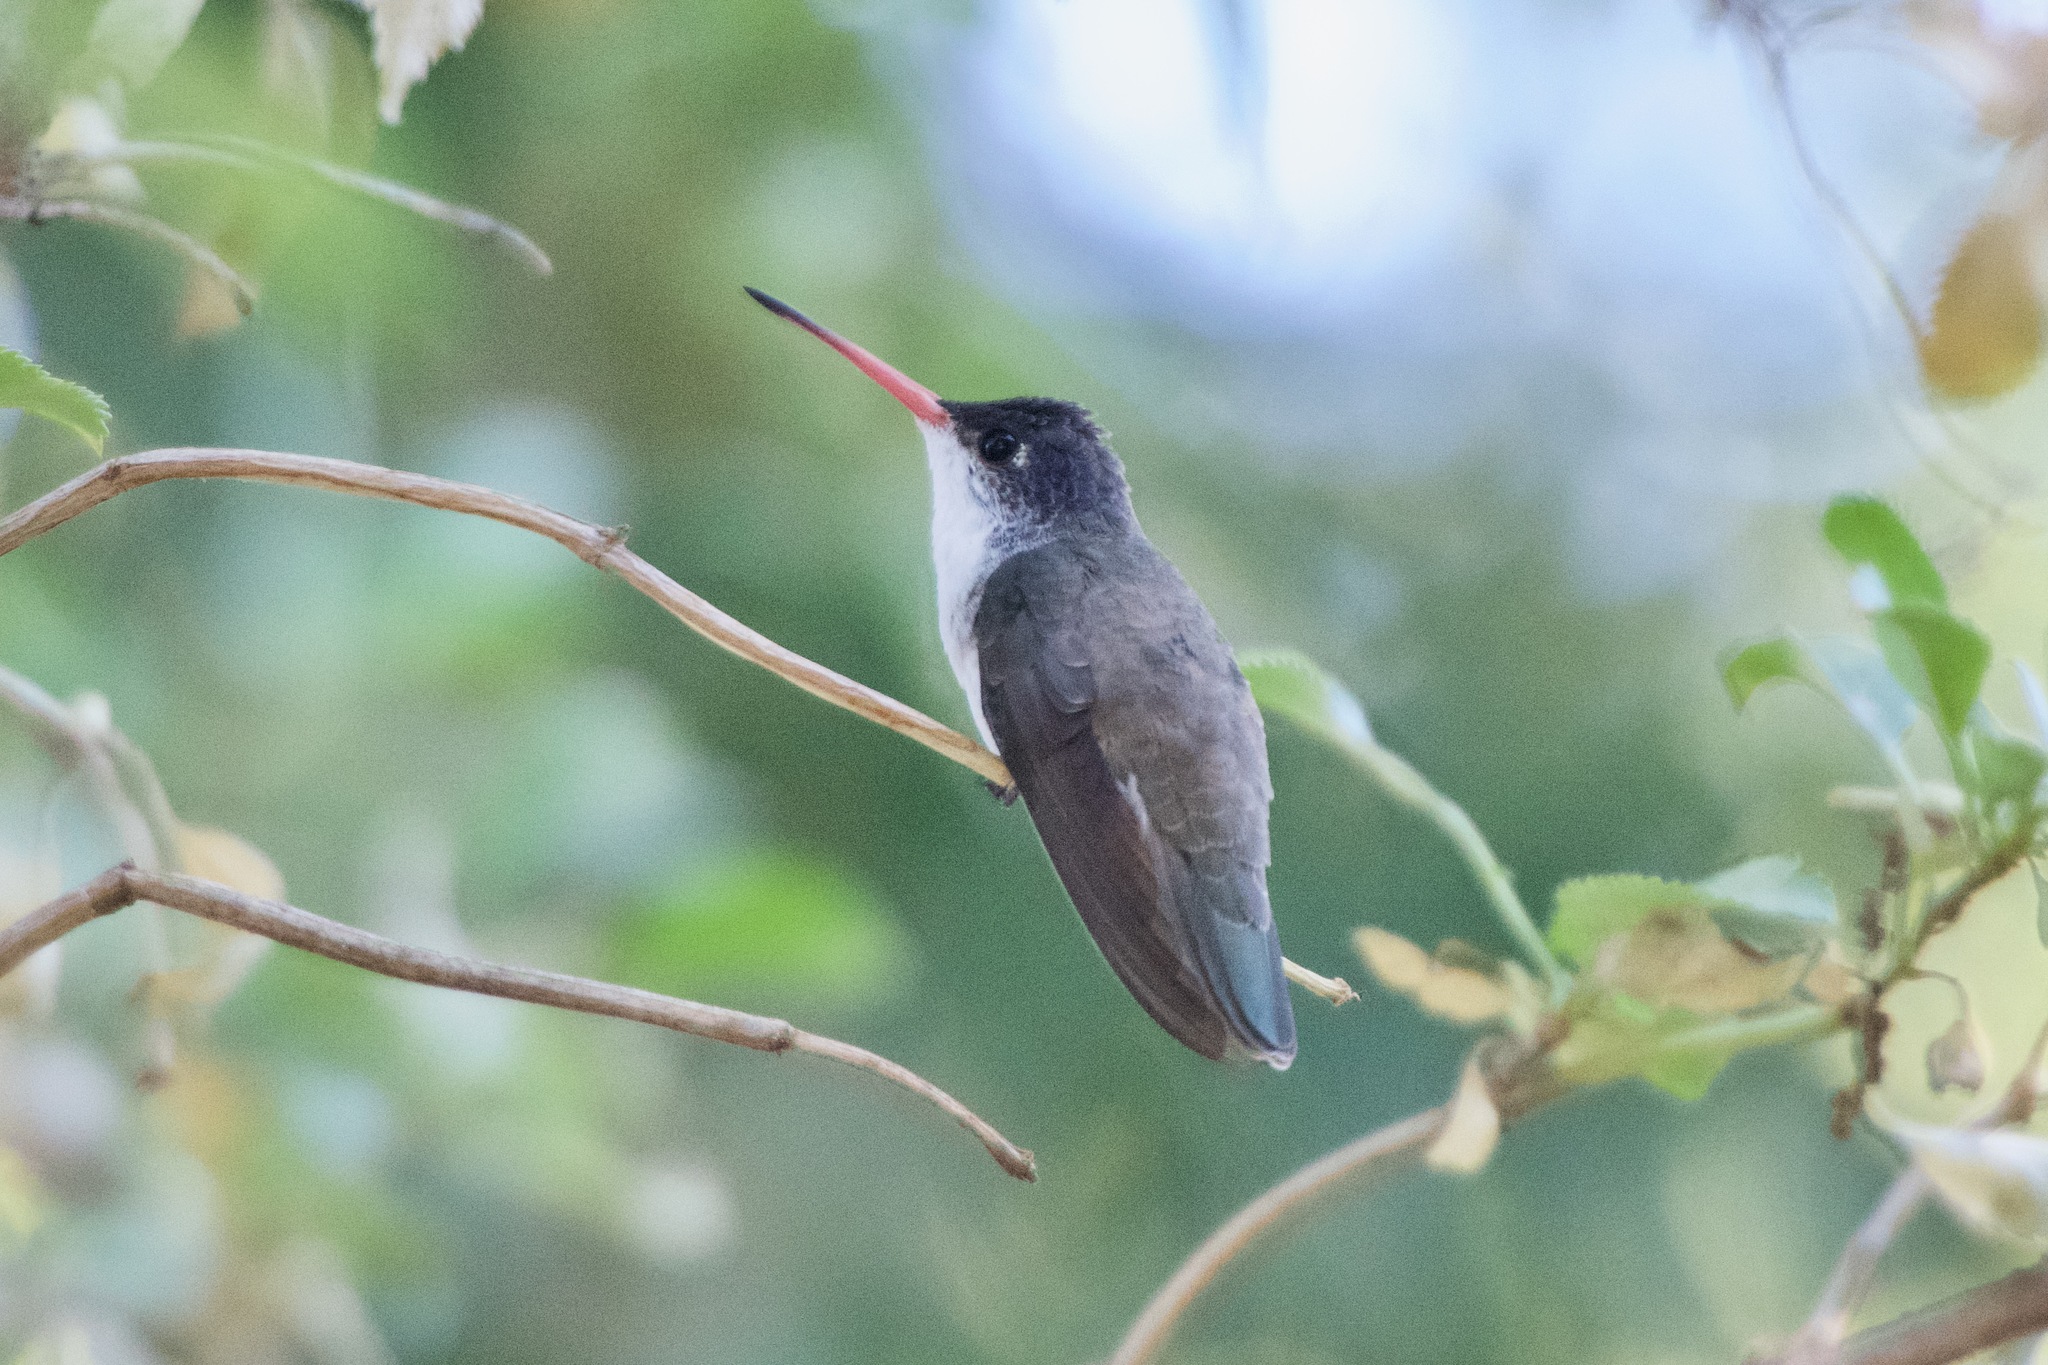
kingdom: Animalia
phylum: Chordata
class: Aves
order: Apodiformes
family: Trochilidae
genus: Leucolia
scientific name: Leucolia violiceps
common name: Violet-crowned hummingbird
